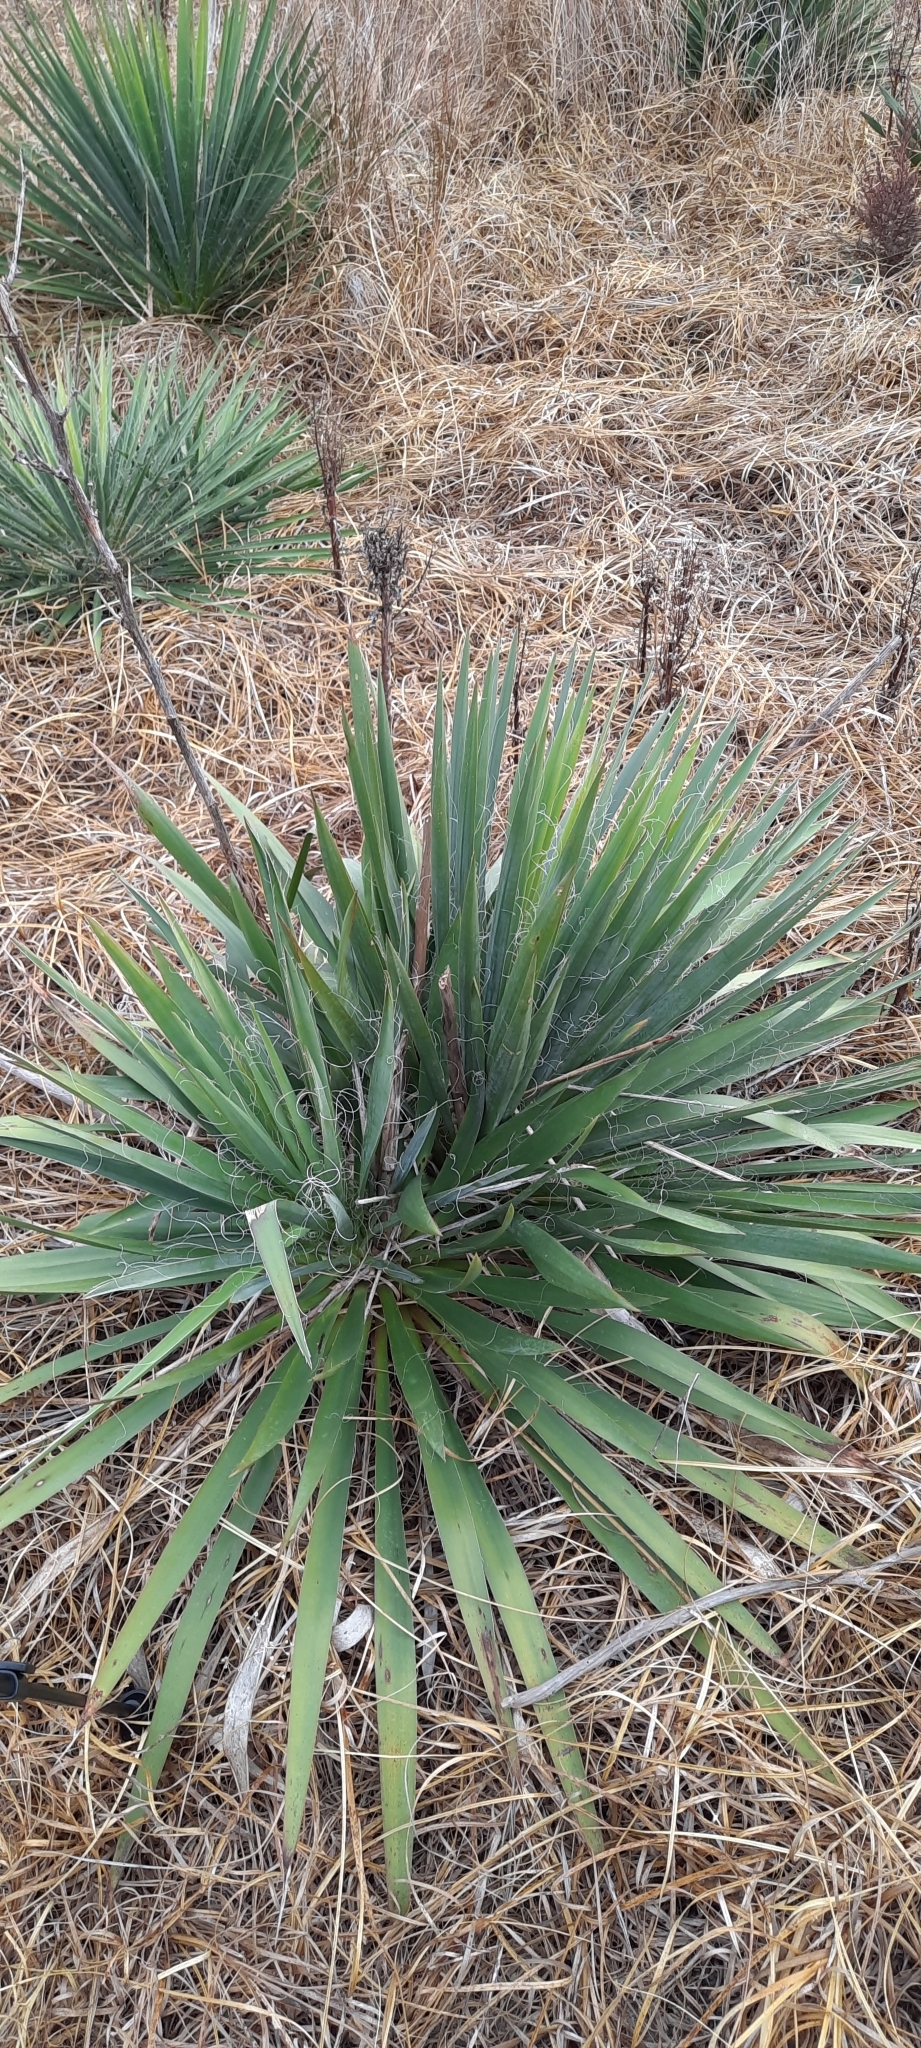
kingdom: Plantae
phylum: Tracheophyta
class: Liliopsida
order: Asparagales
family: Asparagaceae
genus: Yucca
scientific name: Yucca filamentosa
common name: Adam's-needle
